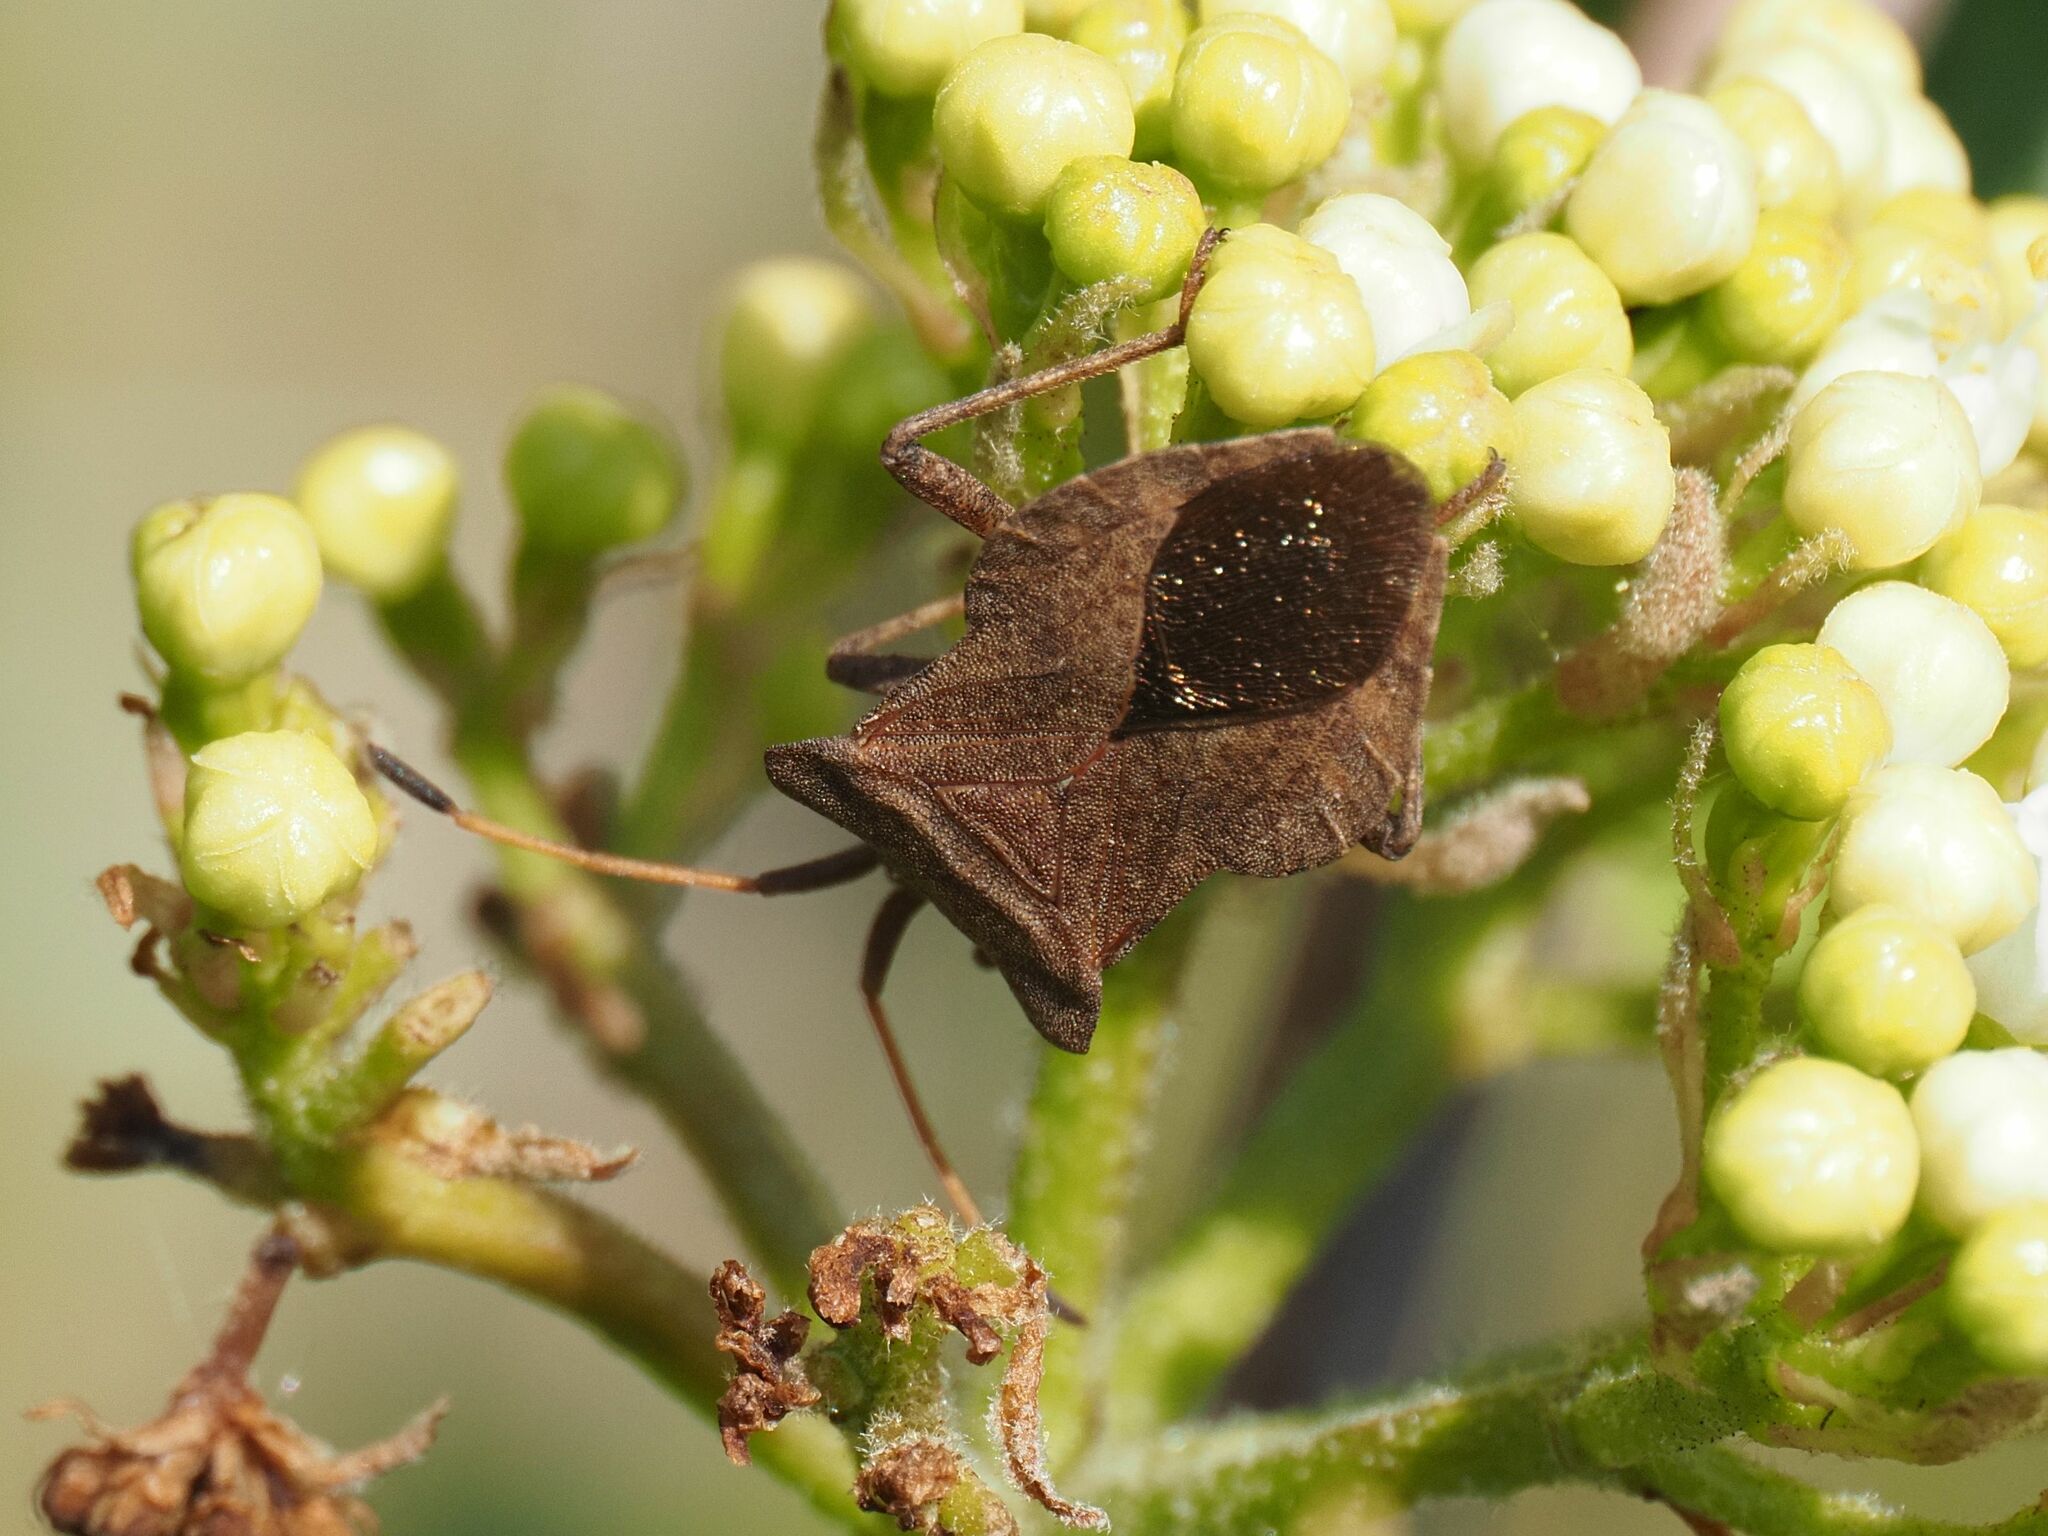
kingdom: Animalia
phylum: Arthropoda
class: Insecta
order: Hemiptera
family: Coreidae
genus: Coreus
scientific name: Coreus marginatus
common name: Dock bug
